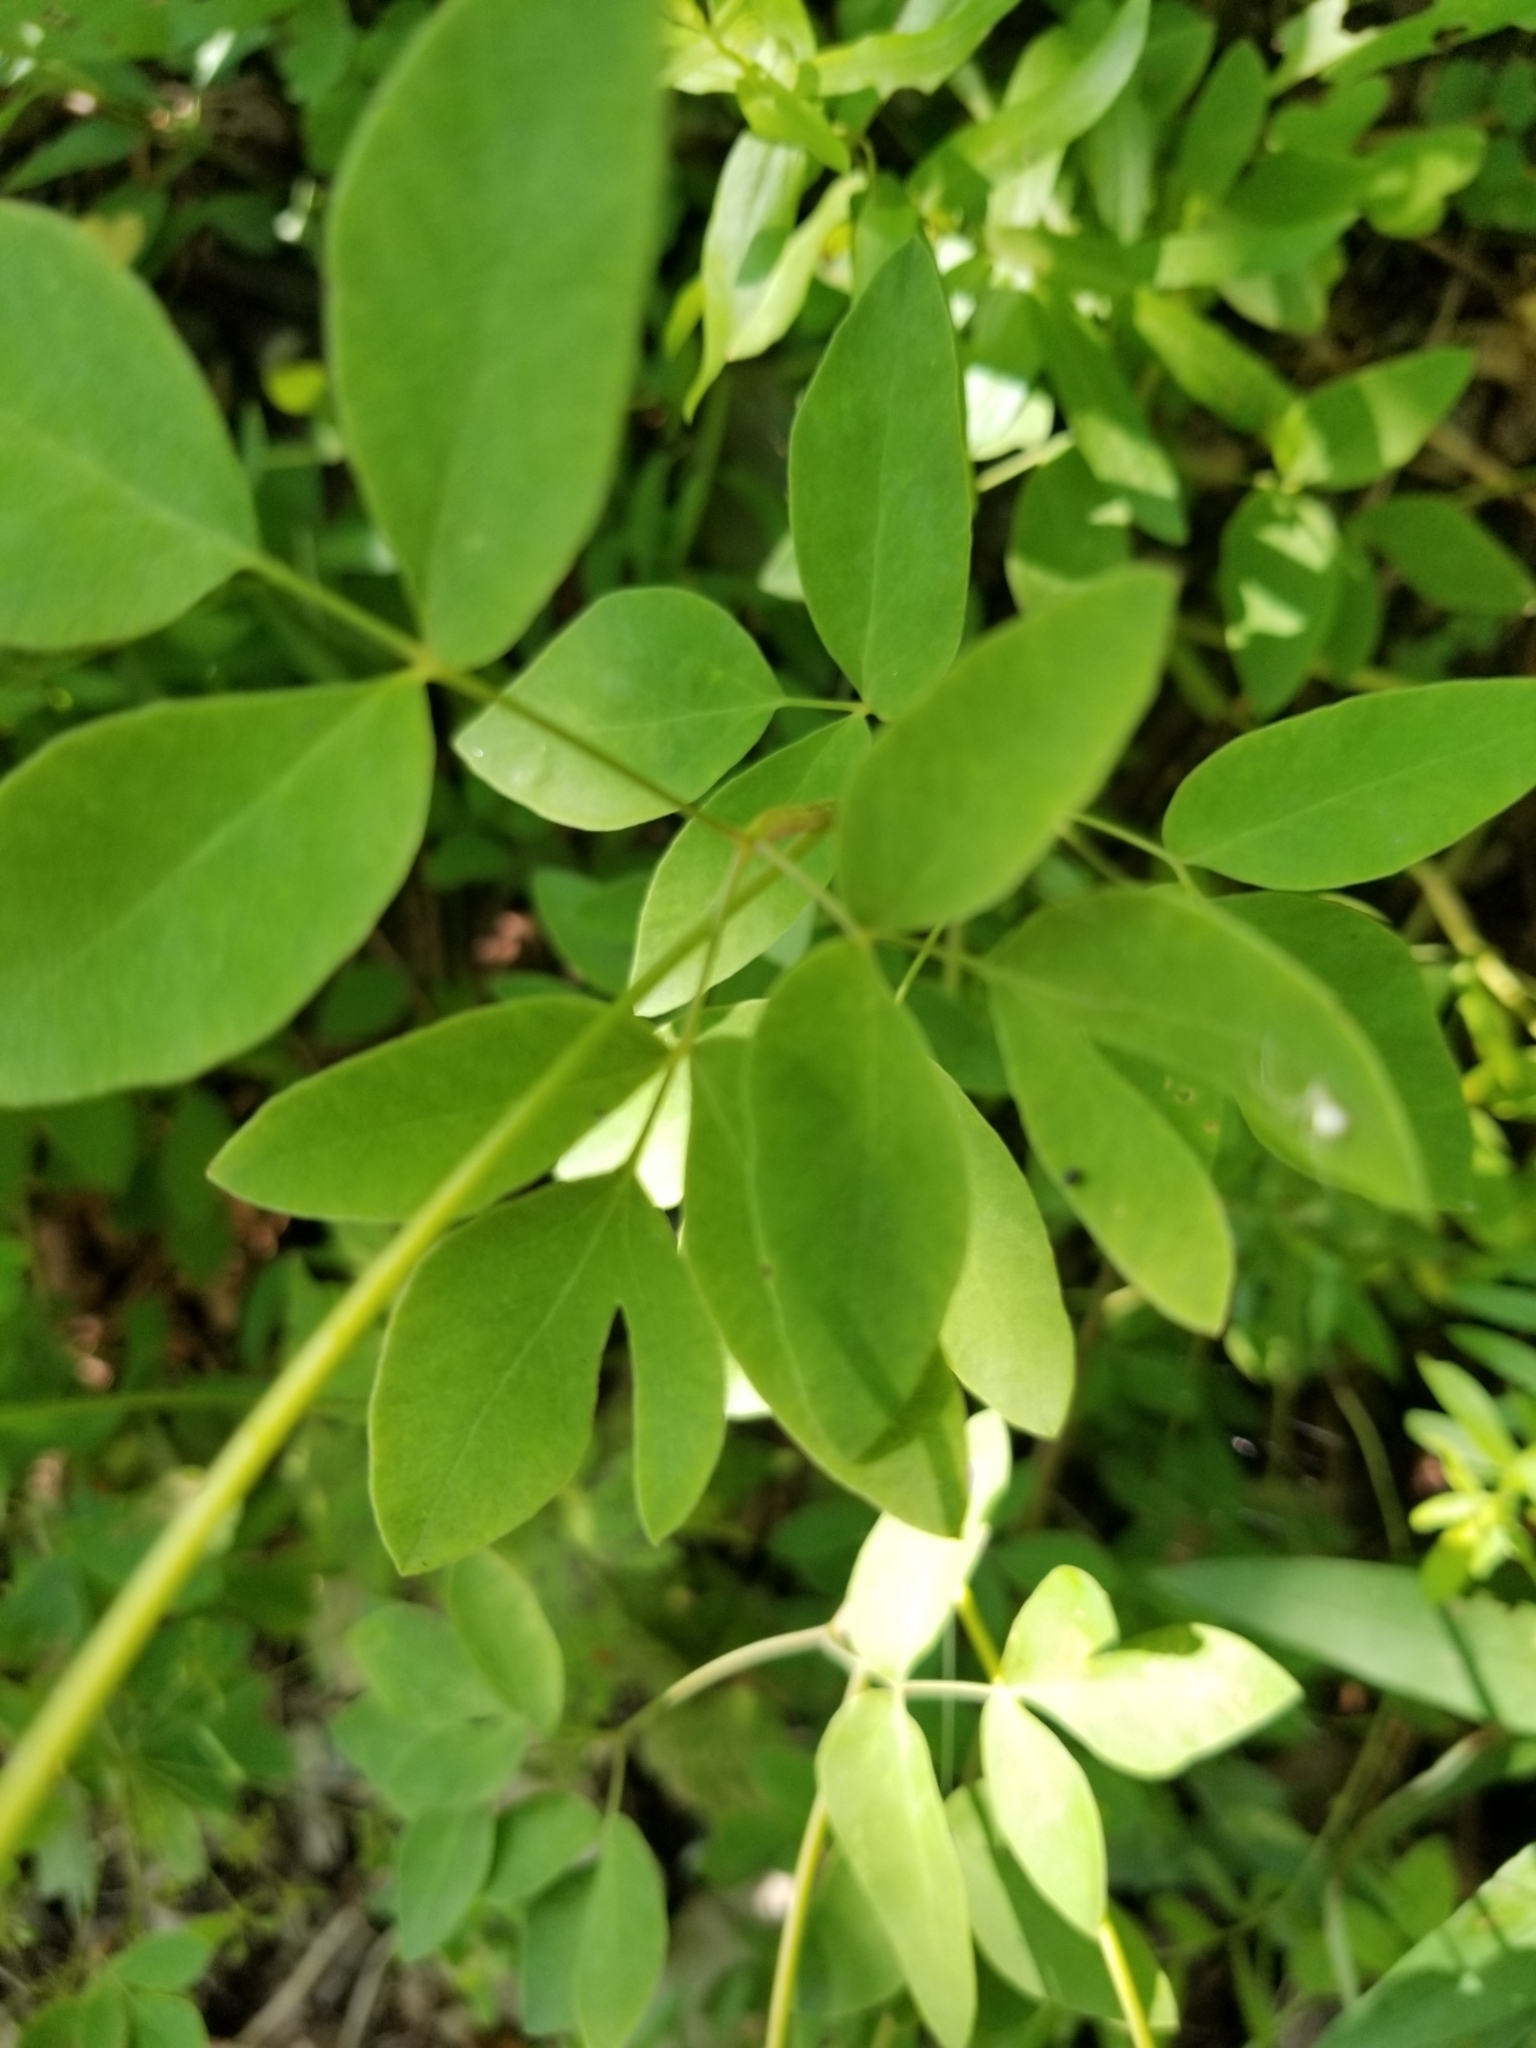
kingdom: Plantae
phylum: Tracheophyta
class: Magnoliopsida
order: Apiales
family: Apiaceae
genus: Taenidia
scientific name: Taenidia integerrima
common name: Golden alexander
